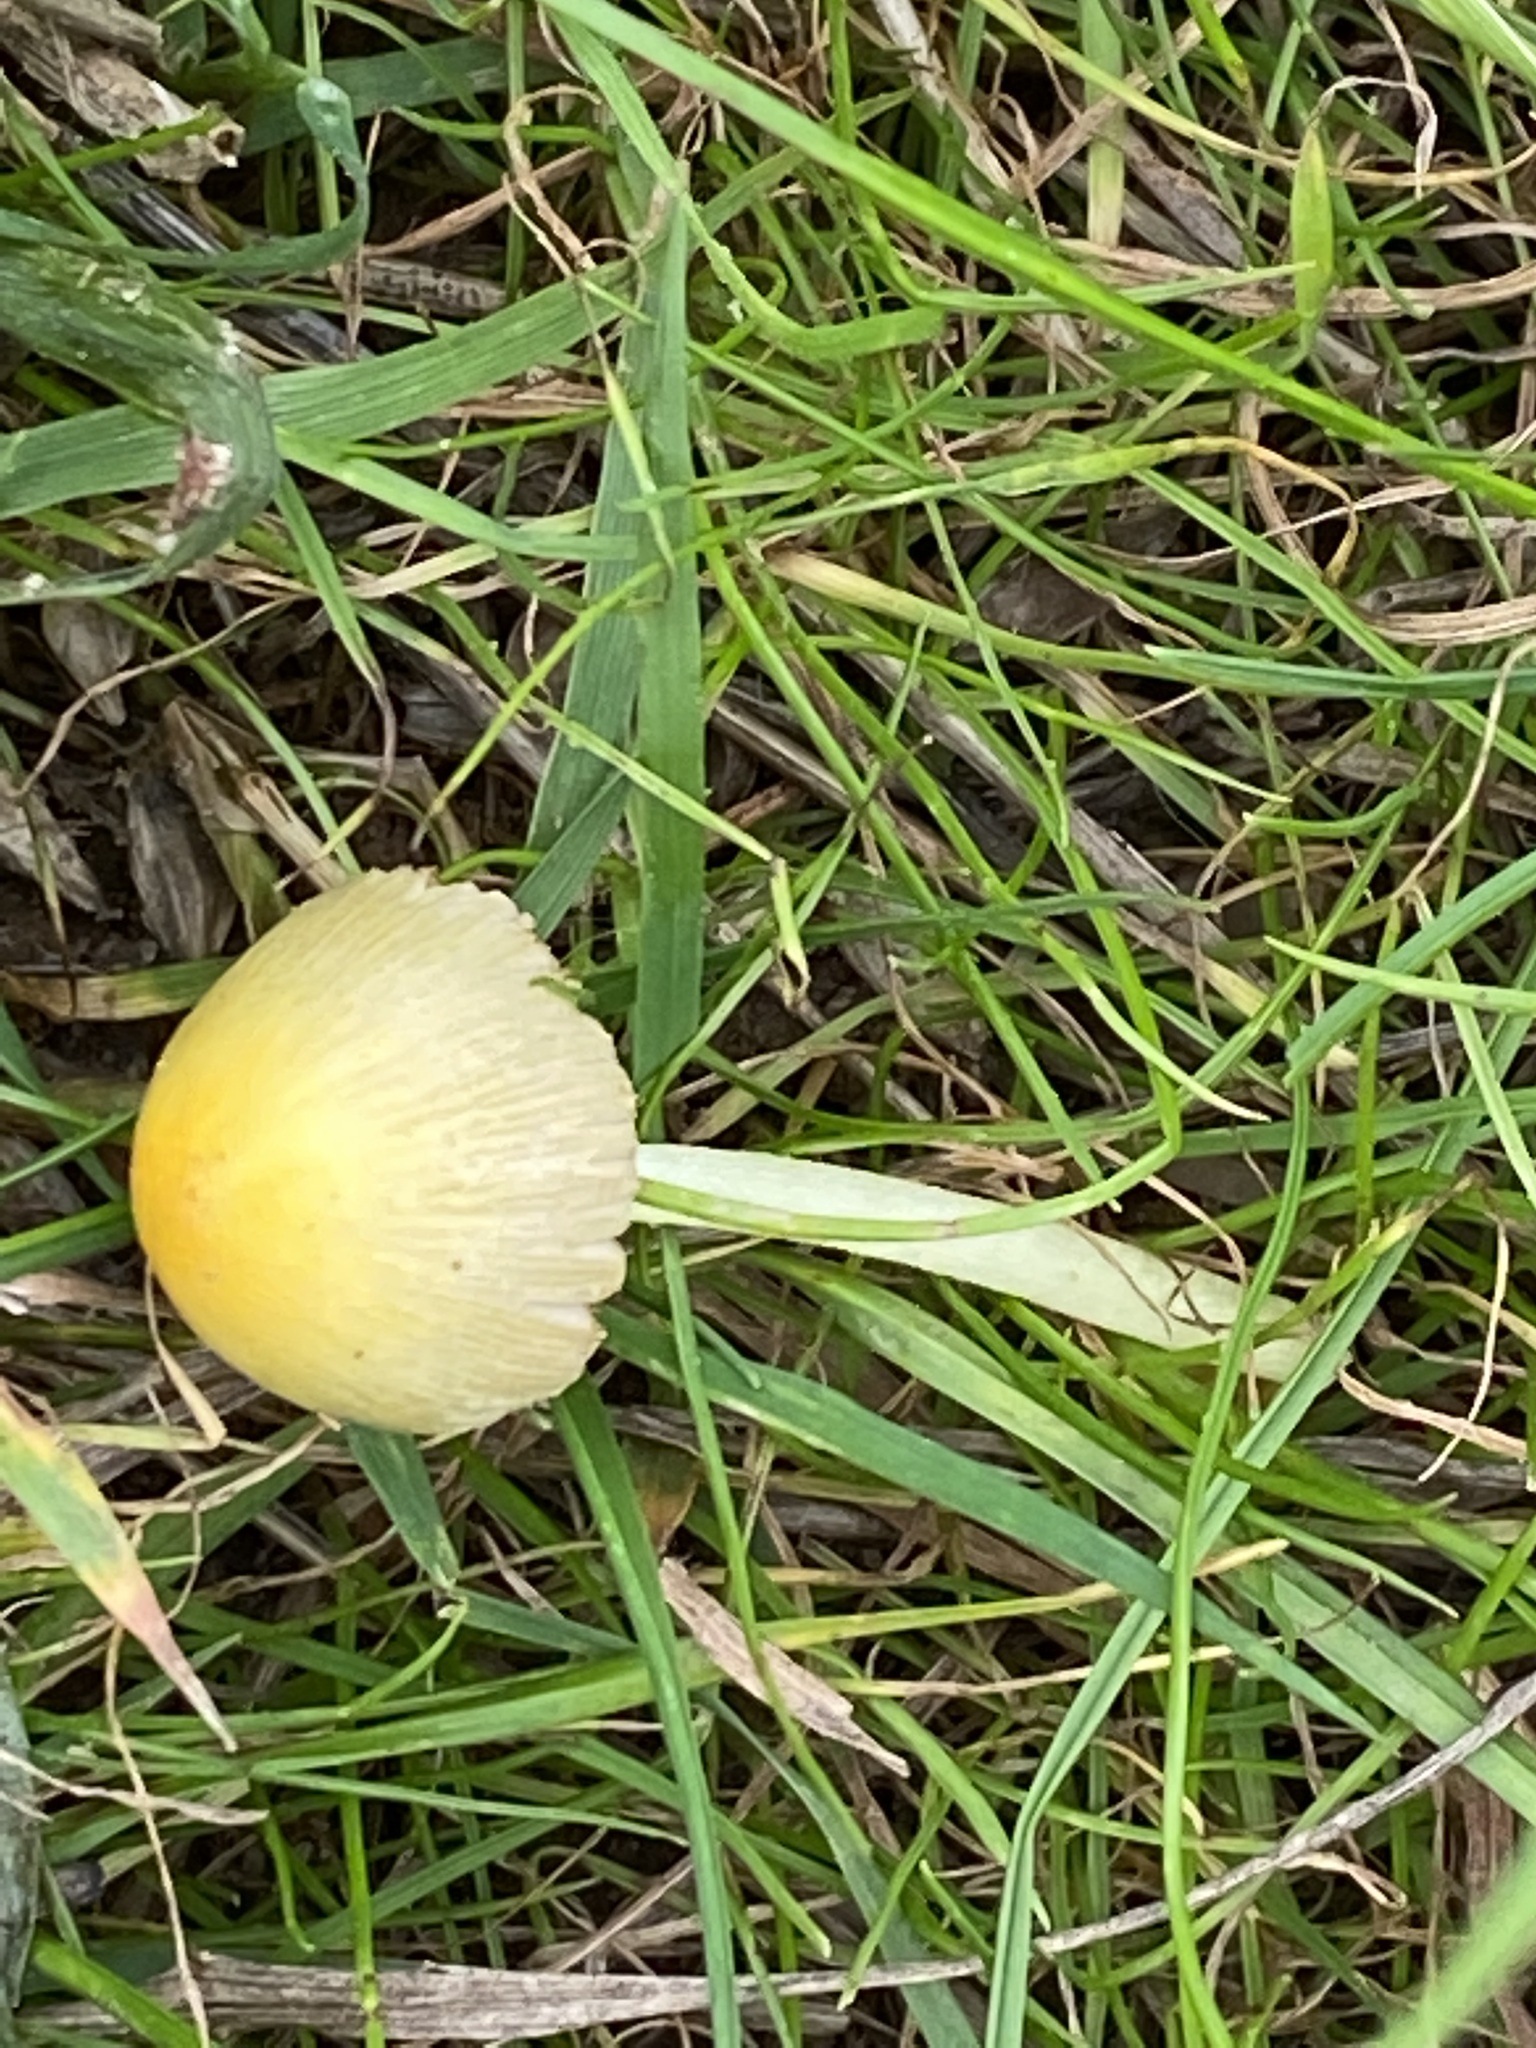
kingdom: Fungi
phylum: Basidiomycota
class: Agaricomycetes
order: Agaricales
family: Bolbitiaceae
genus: Bolbitius
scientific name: Bolbitius titubans
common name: Yellow fieldcap
